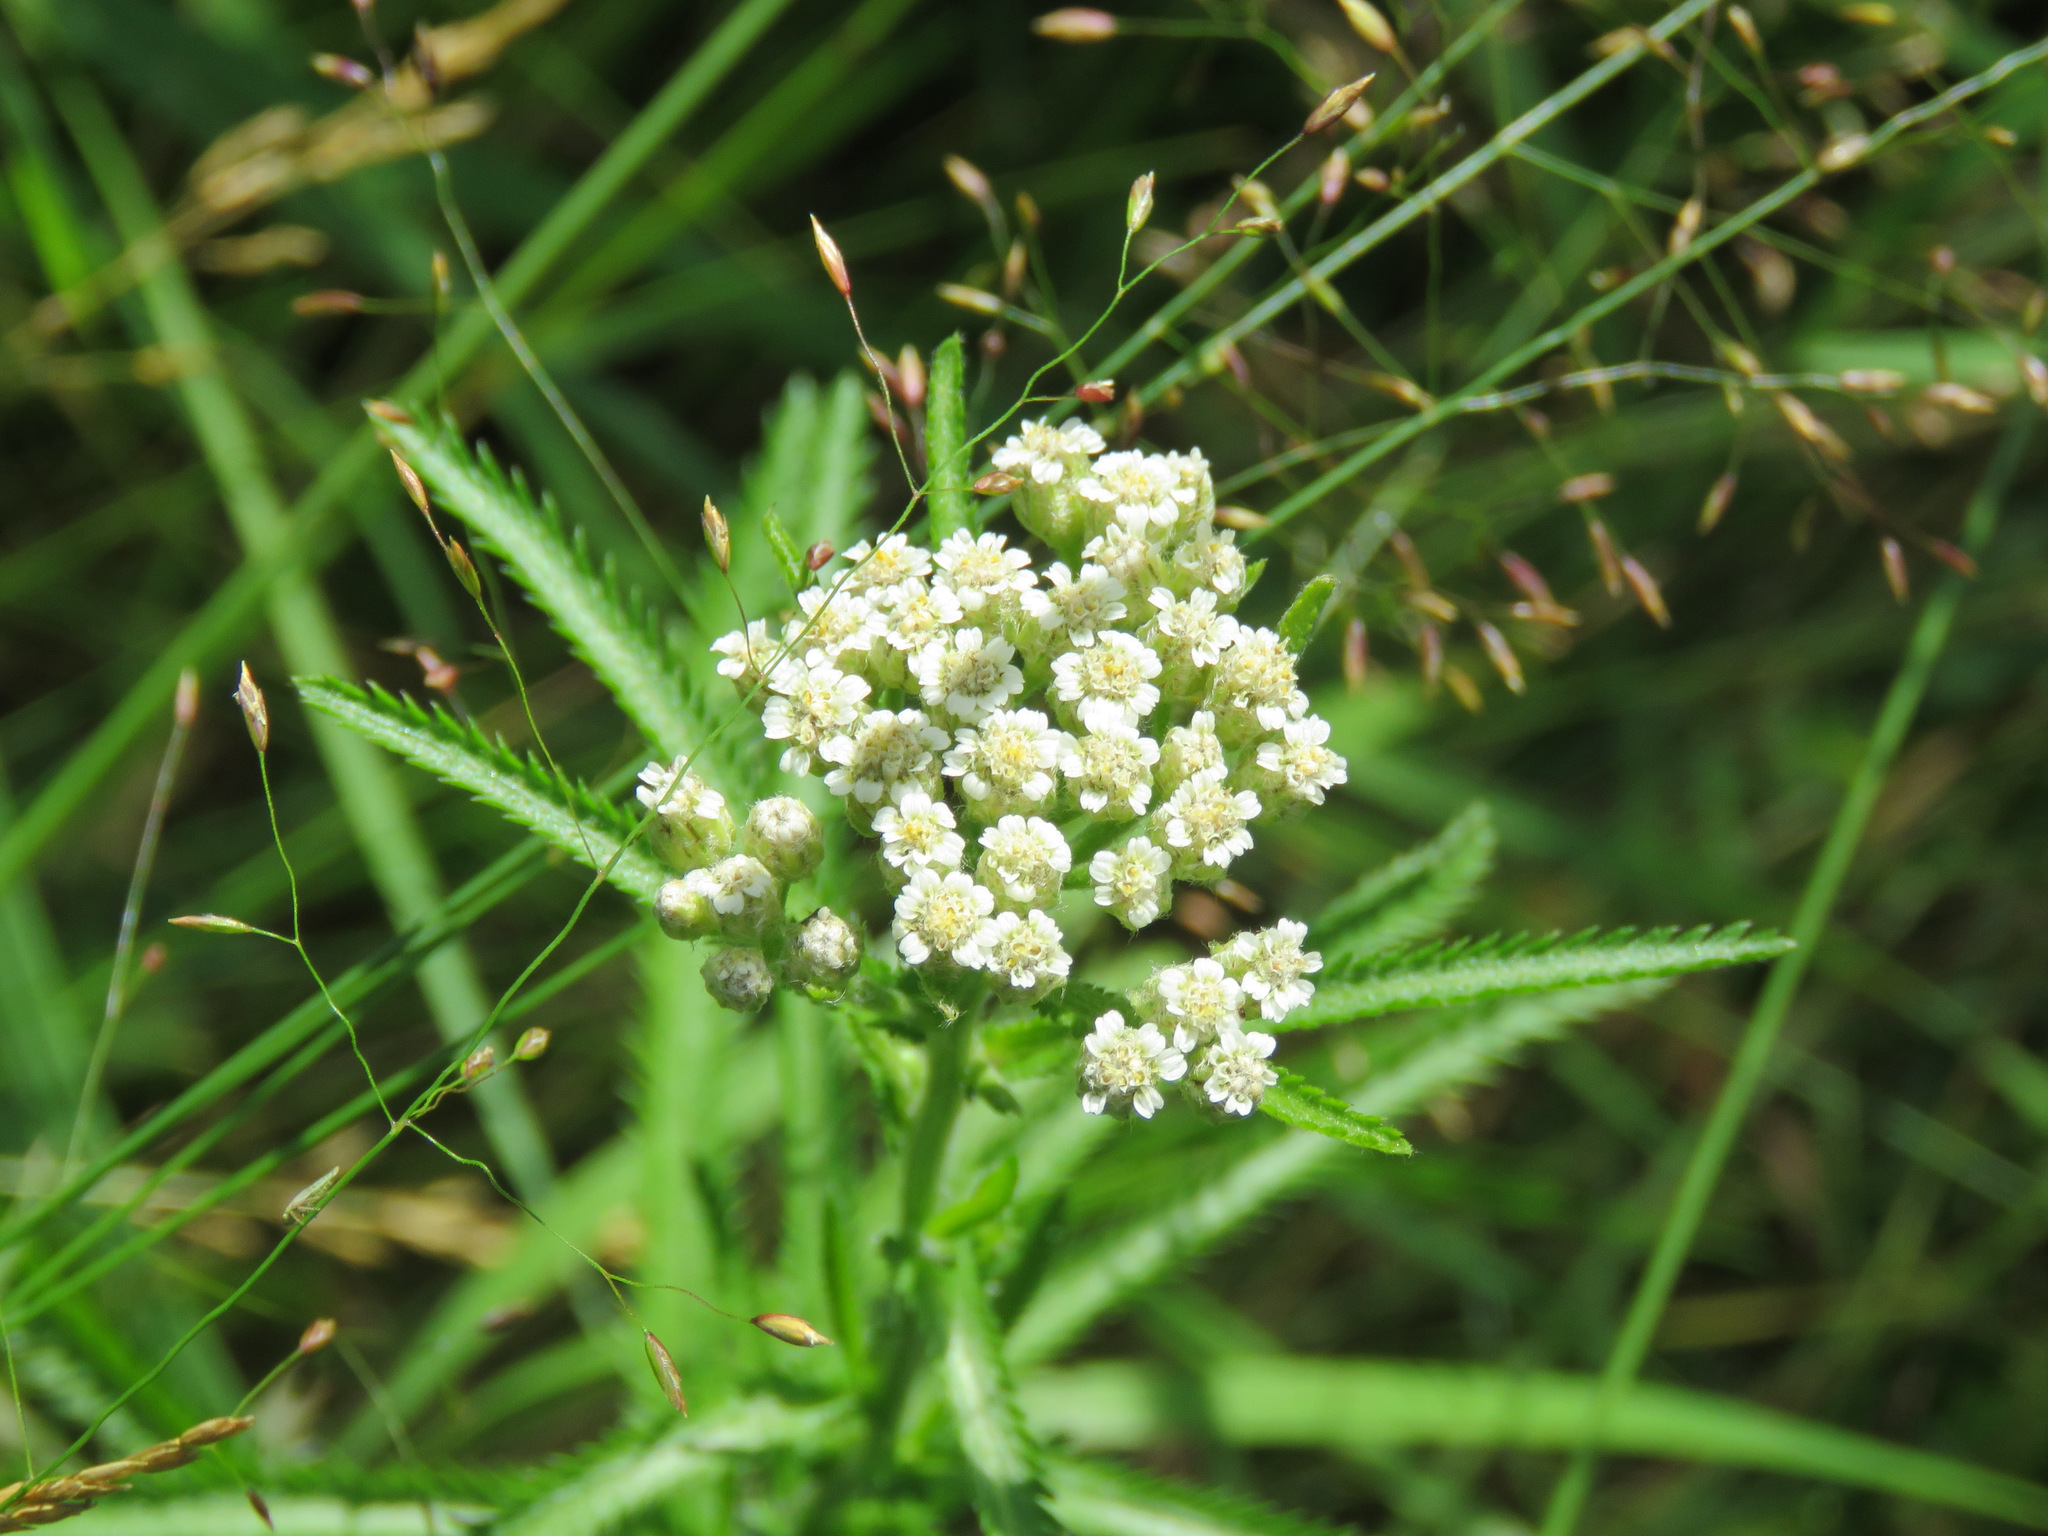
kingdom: Plantae
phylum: Tracheophyta
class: Magnoliopsida
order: Asterales
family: Asteraceae
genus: Achillea
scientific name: Achillea alpina
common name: Siberian yarrow
